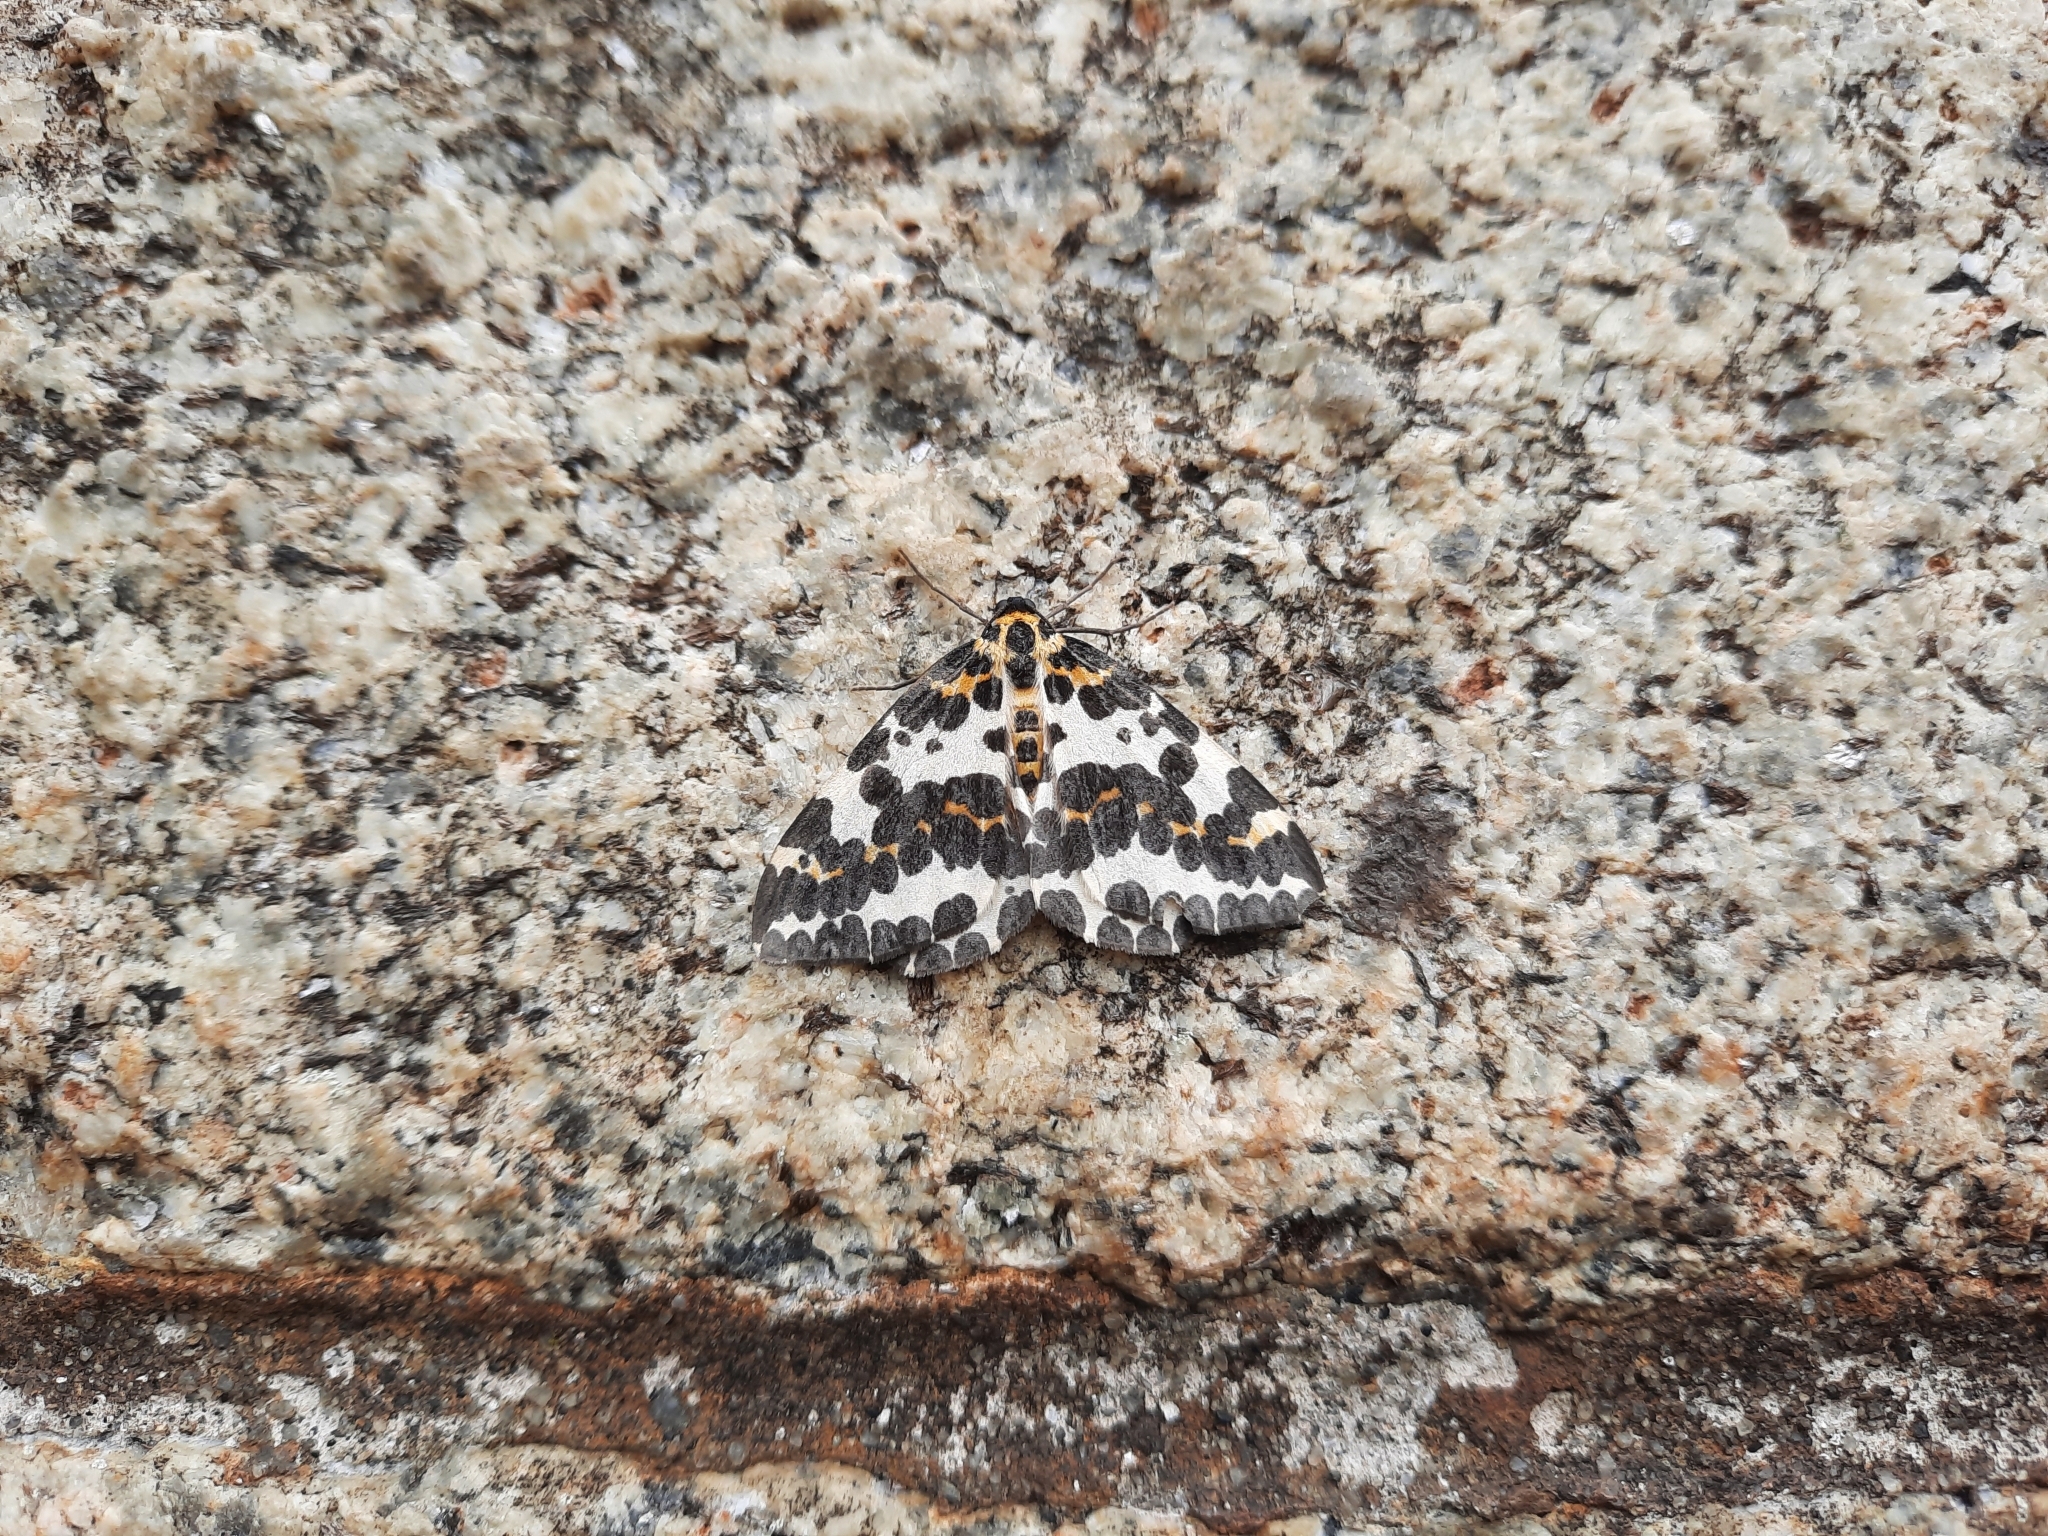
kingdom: Animalia
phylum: Arthropoda
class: Insecta
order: Lepidoptera
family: Geometridae
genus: Abraxas
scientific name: Abraxas grossulariata
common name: Magpie
